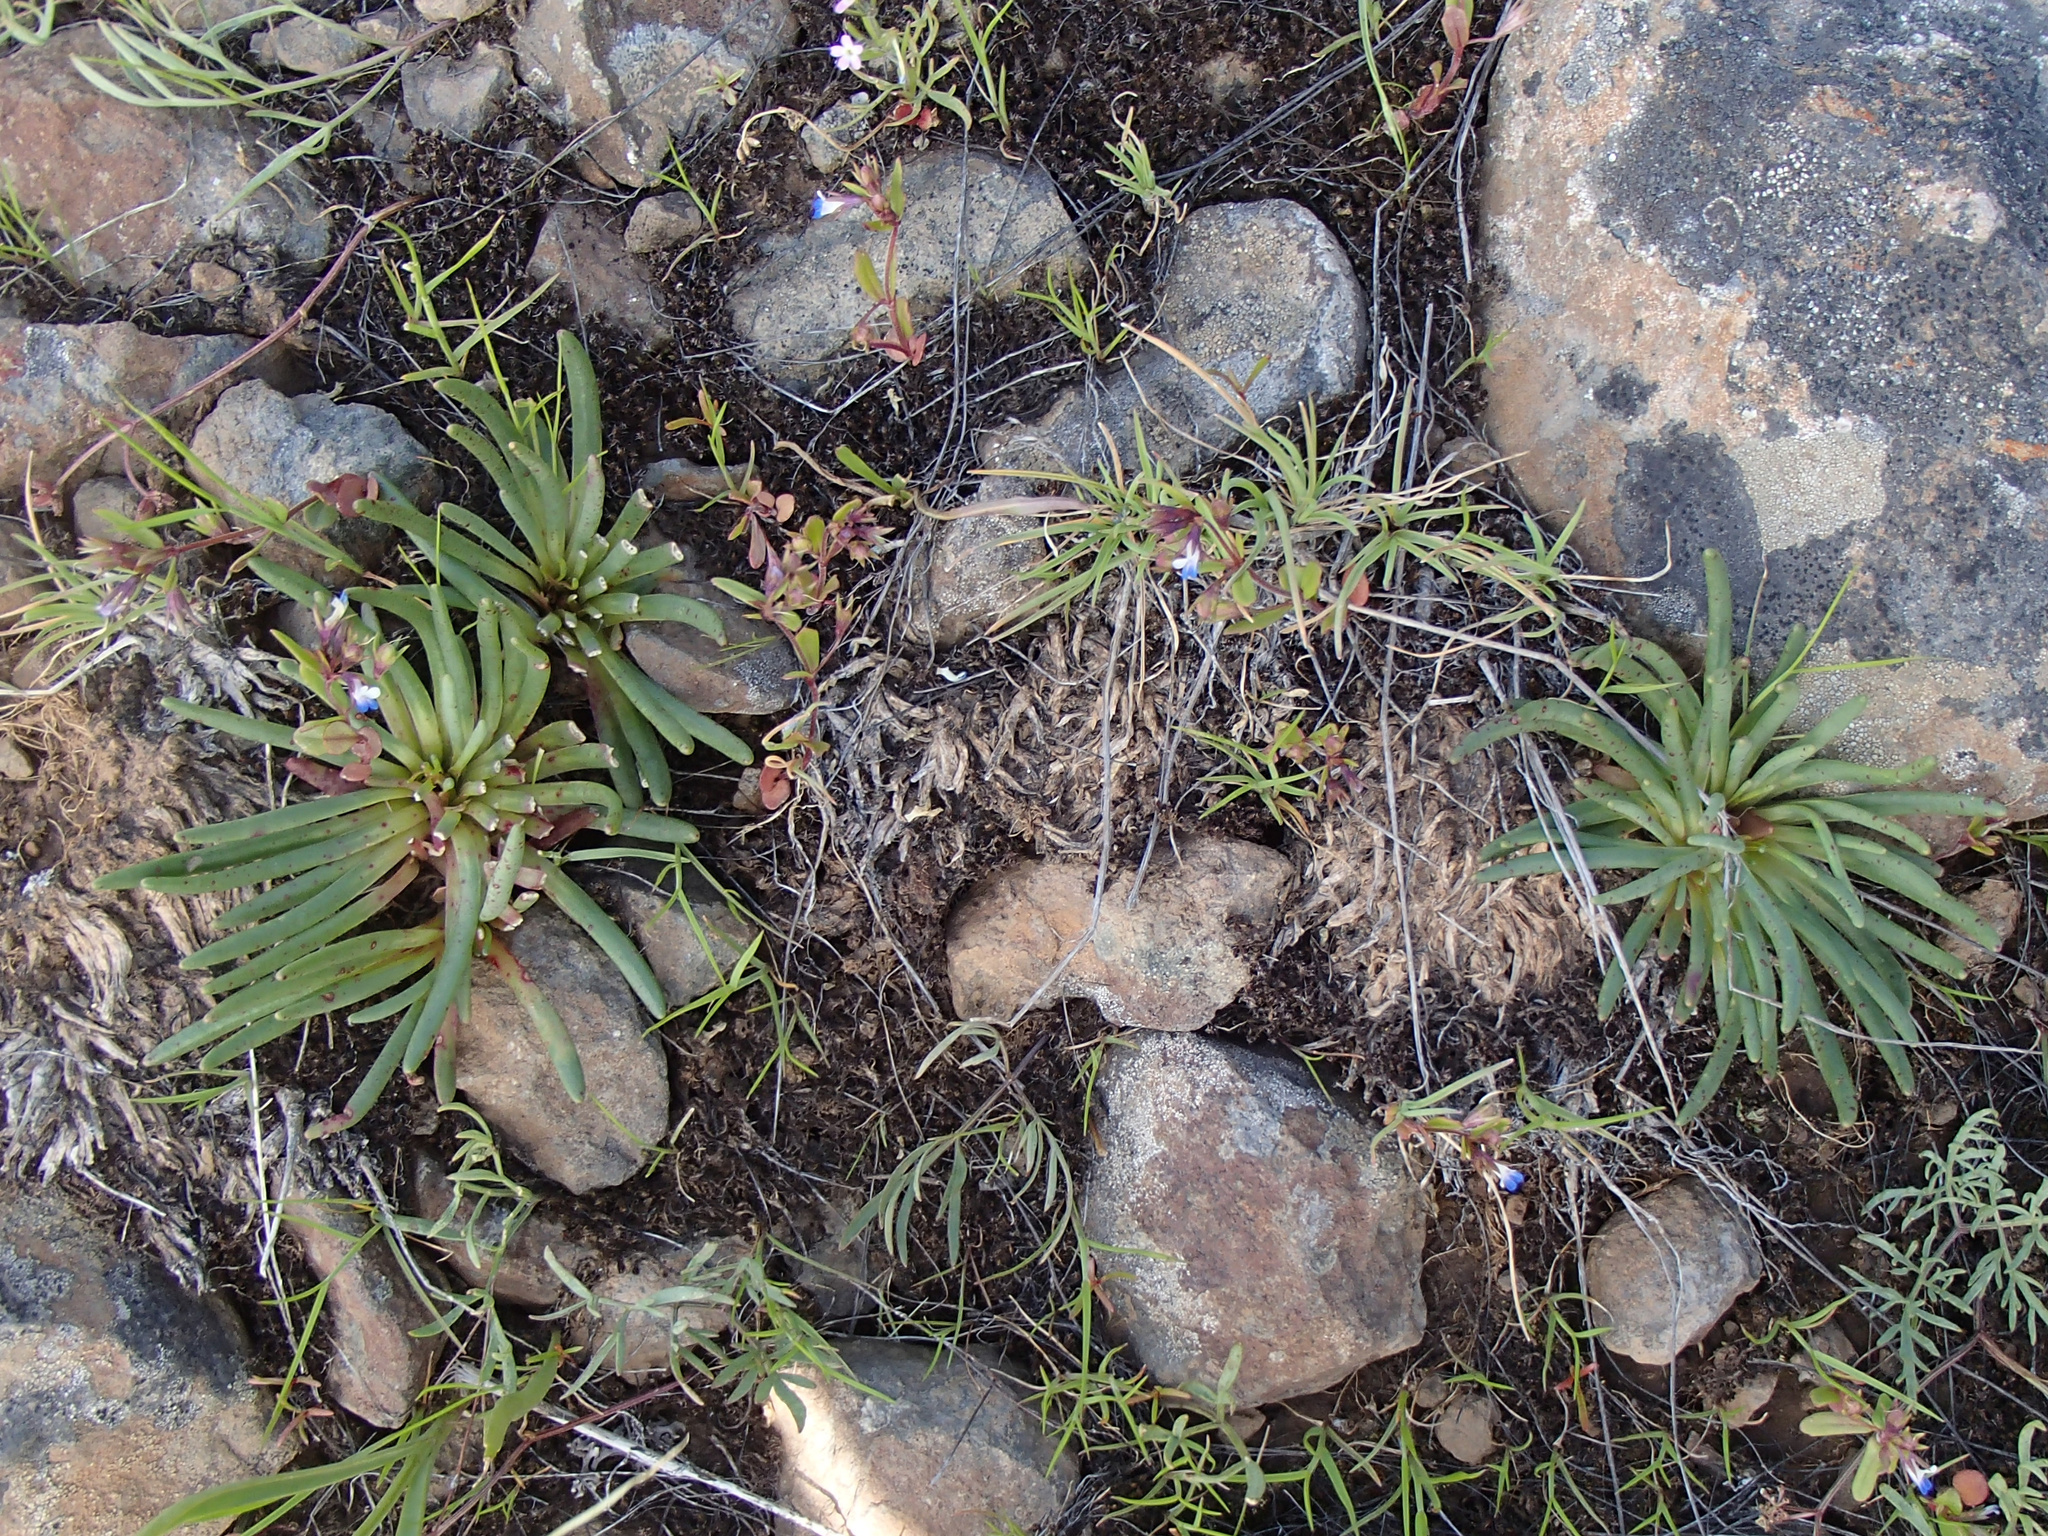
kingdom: Plantae
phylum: Tracheophyta
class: Magnoliopsida
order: Caryophyllales
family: Montiaceae
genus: Lewisia
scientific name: Lewisia rediviva
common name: Bitter-root
